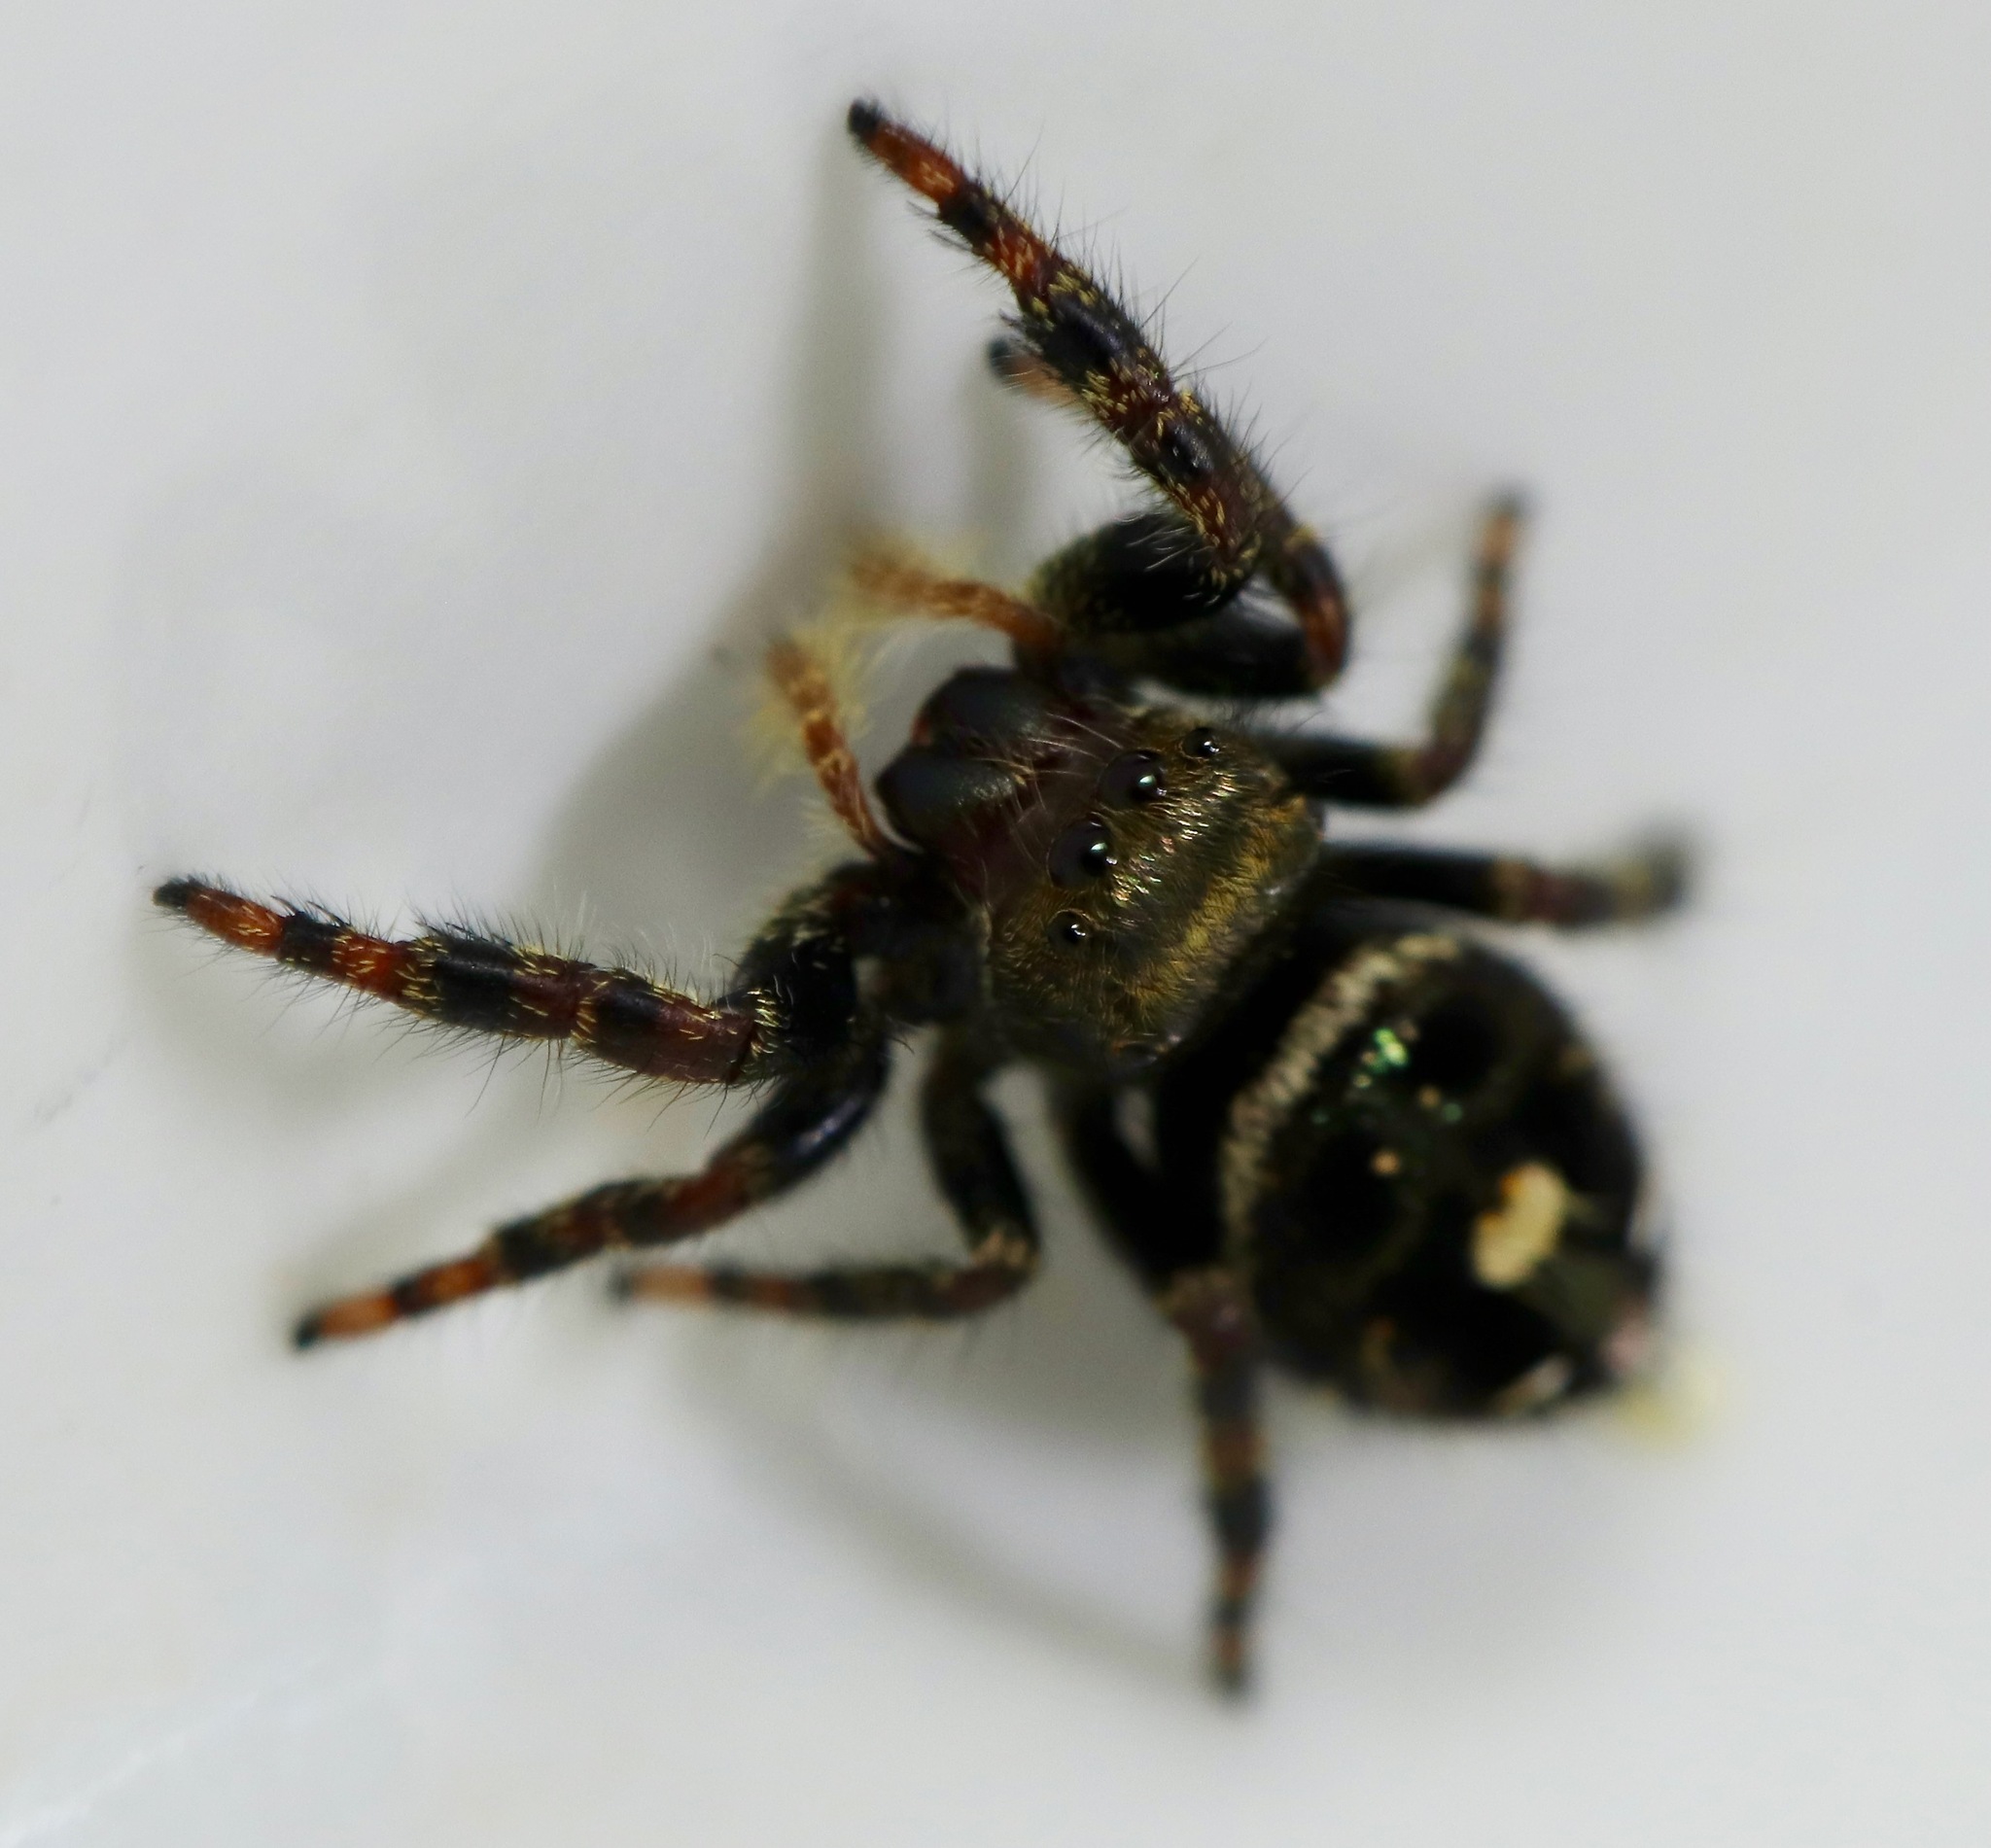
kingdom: Animalia
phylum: Arthropoda
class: Arachnida
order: Araneae
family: Salticidae
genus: Phidippus
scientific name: Phidippus audax
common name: Bold jumper
